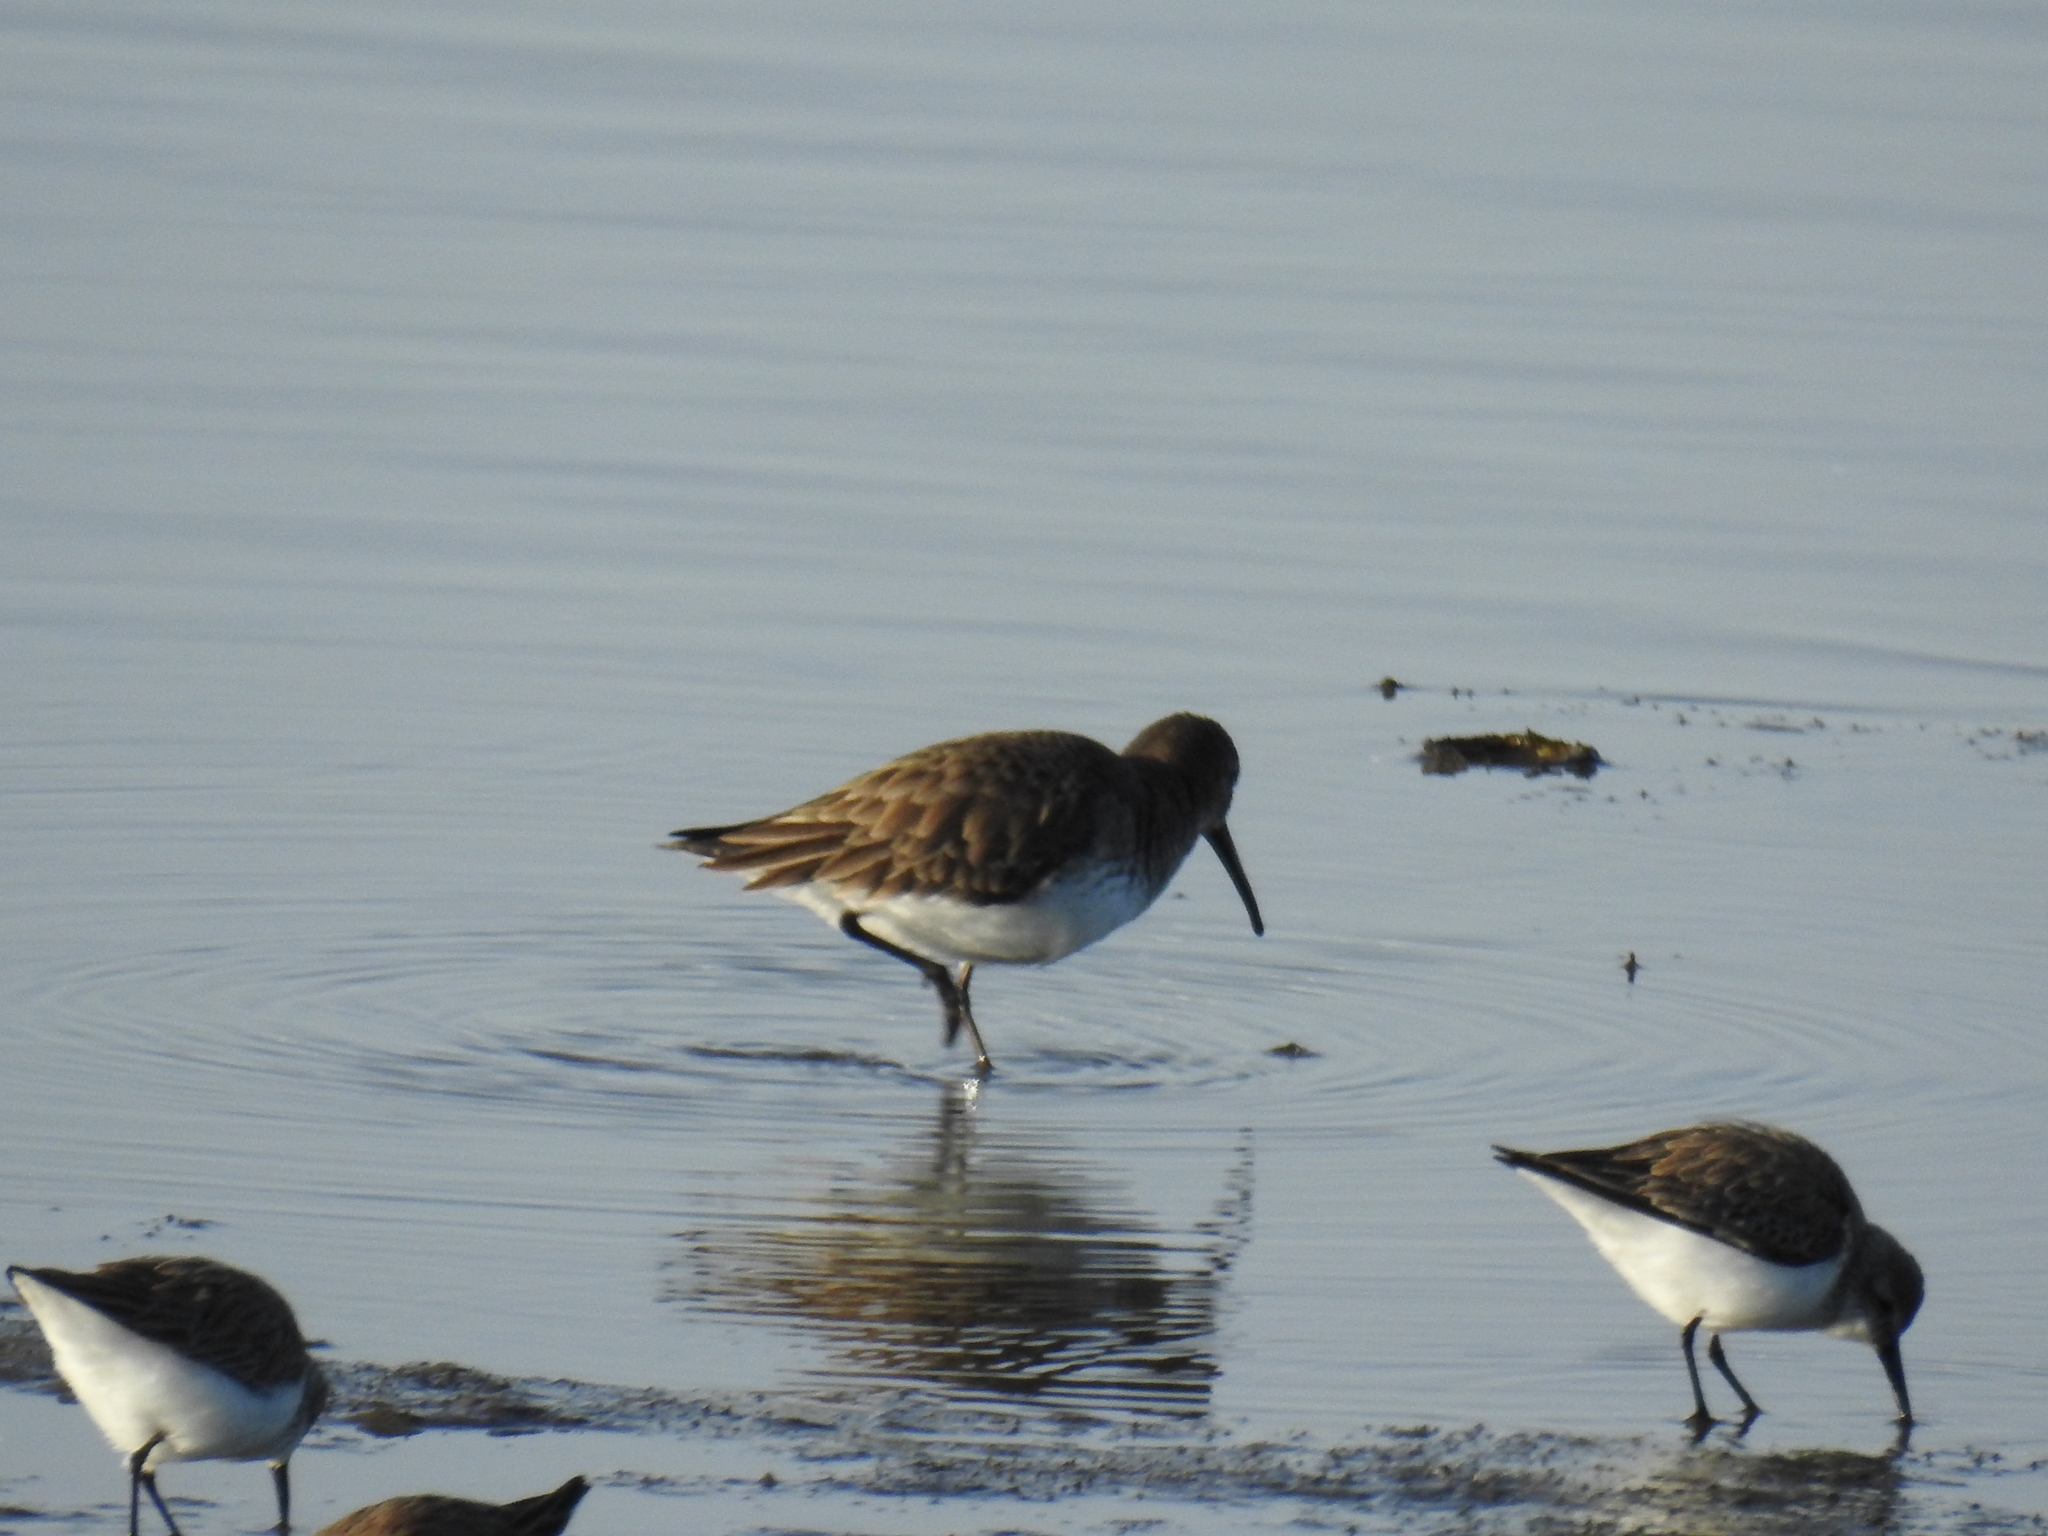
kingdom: Animalia
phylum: Chordata
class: Aves
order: Charadriiformes
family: Scolopacidae
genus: Calidris
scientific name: Calidris alpina
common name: Dunlin
